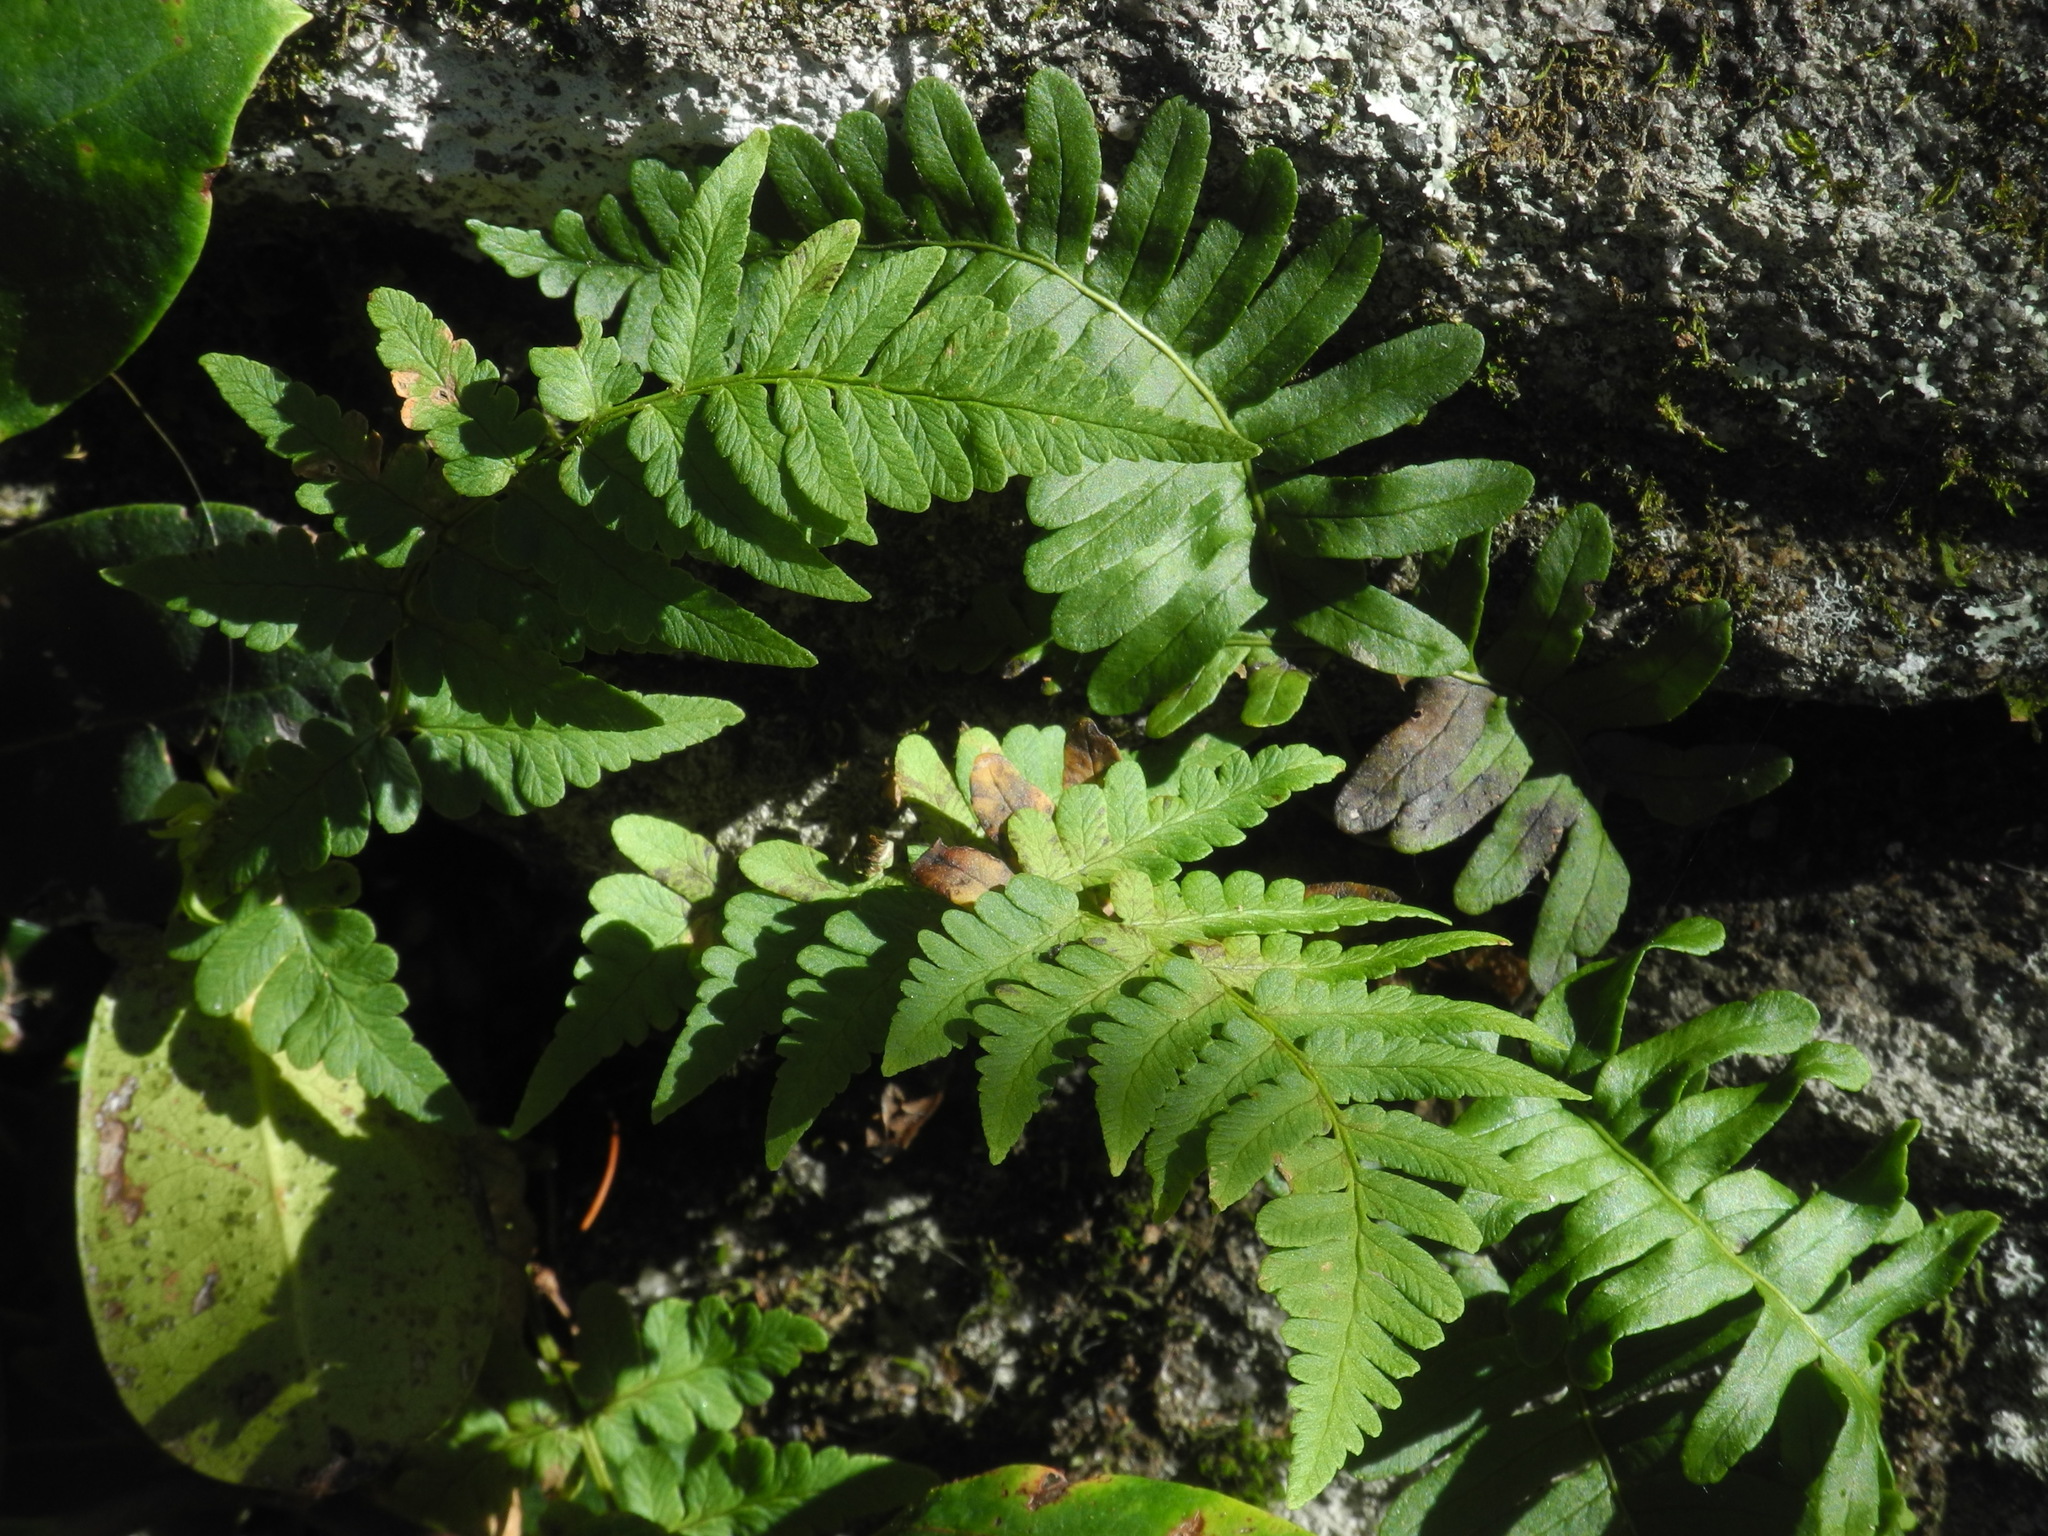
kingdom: Plantae
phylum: Tracheophyta
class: Polypodiopsida
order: Polypodiales
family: Polypodiaceae
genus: Polypodium
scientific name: Polypodium virginianum
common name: American wall fern
